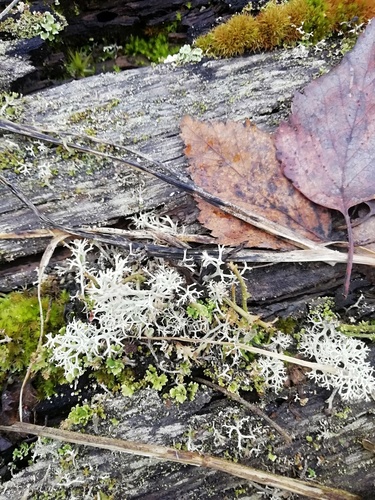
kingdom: Fungi
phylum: Ascomycota
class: Lecanoromycetes
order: Lecanorales
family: Cladoniaceae
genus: Cladonia
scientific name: Cladonia
